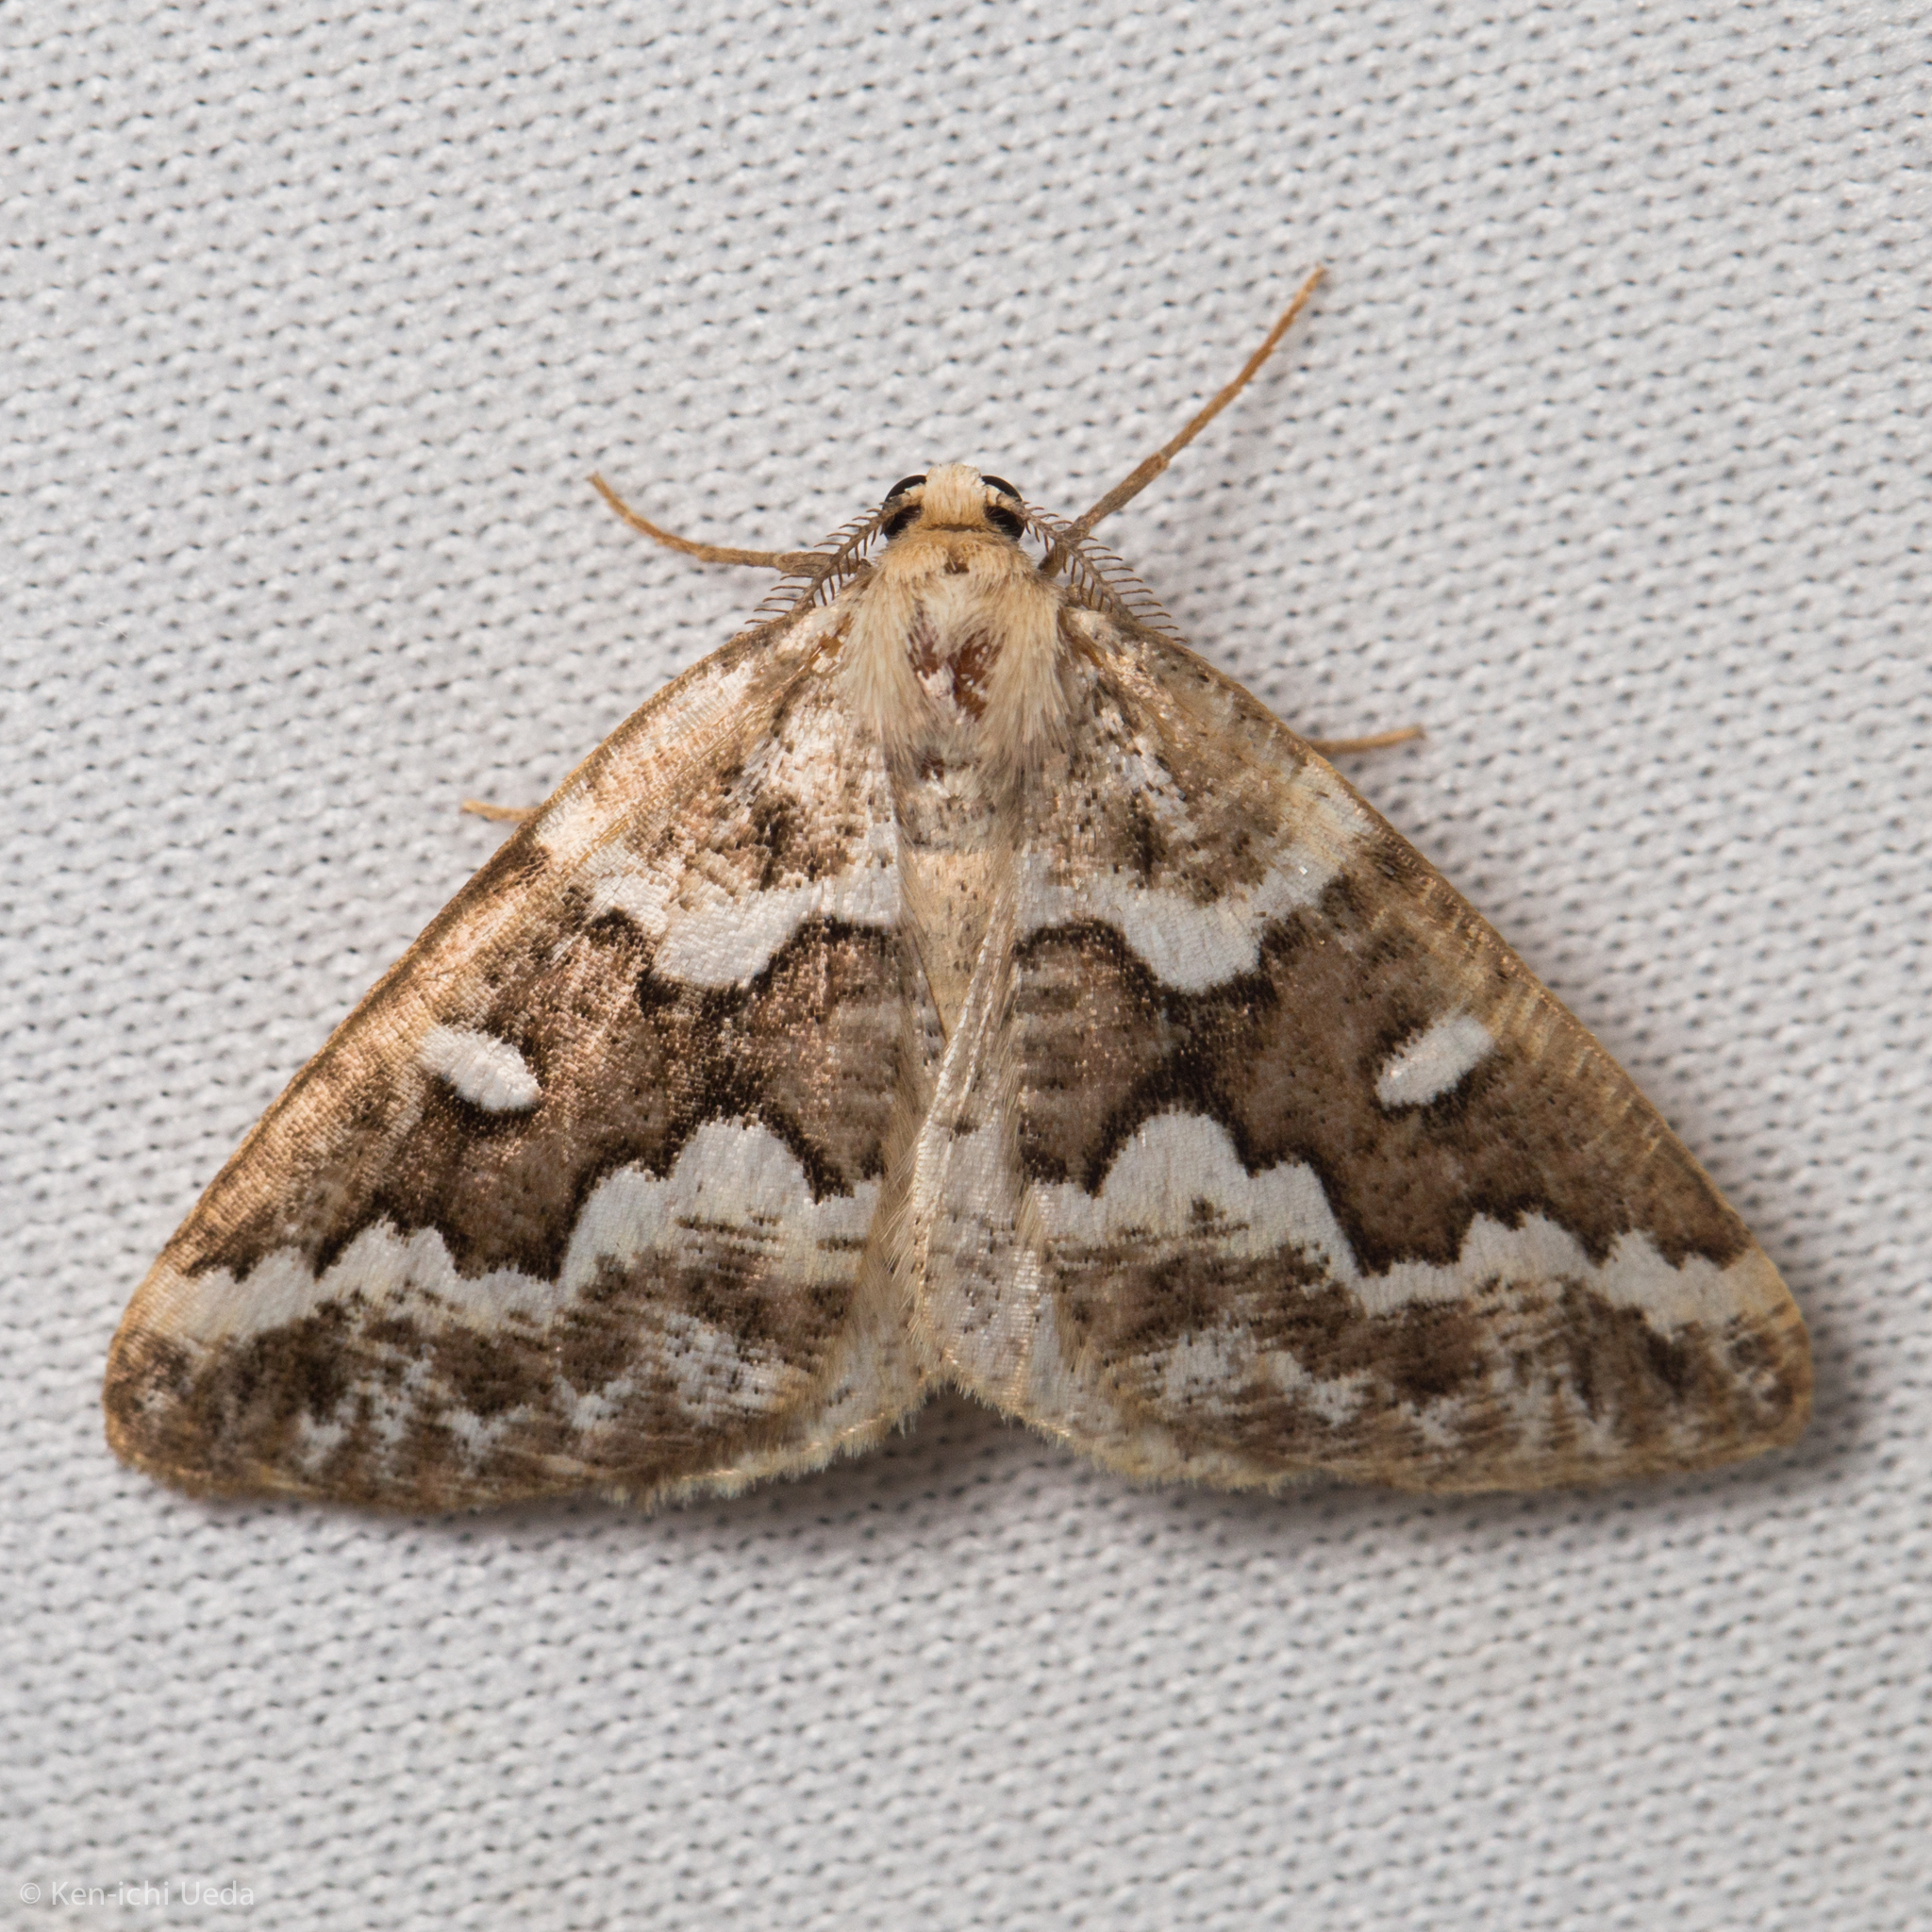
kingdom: Animalia
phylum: Arthropoda
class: Insecta
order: Lepidoptera
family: Geometridae
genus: Caripeta
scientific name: Caripeta divisata
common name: Gray spruce looper
